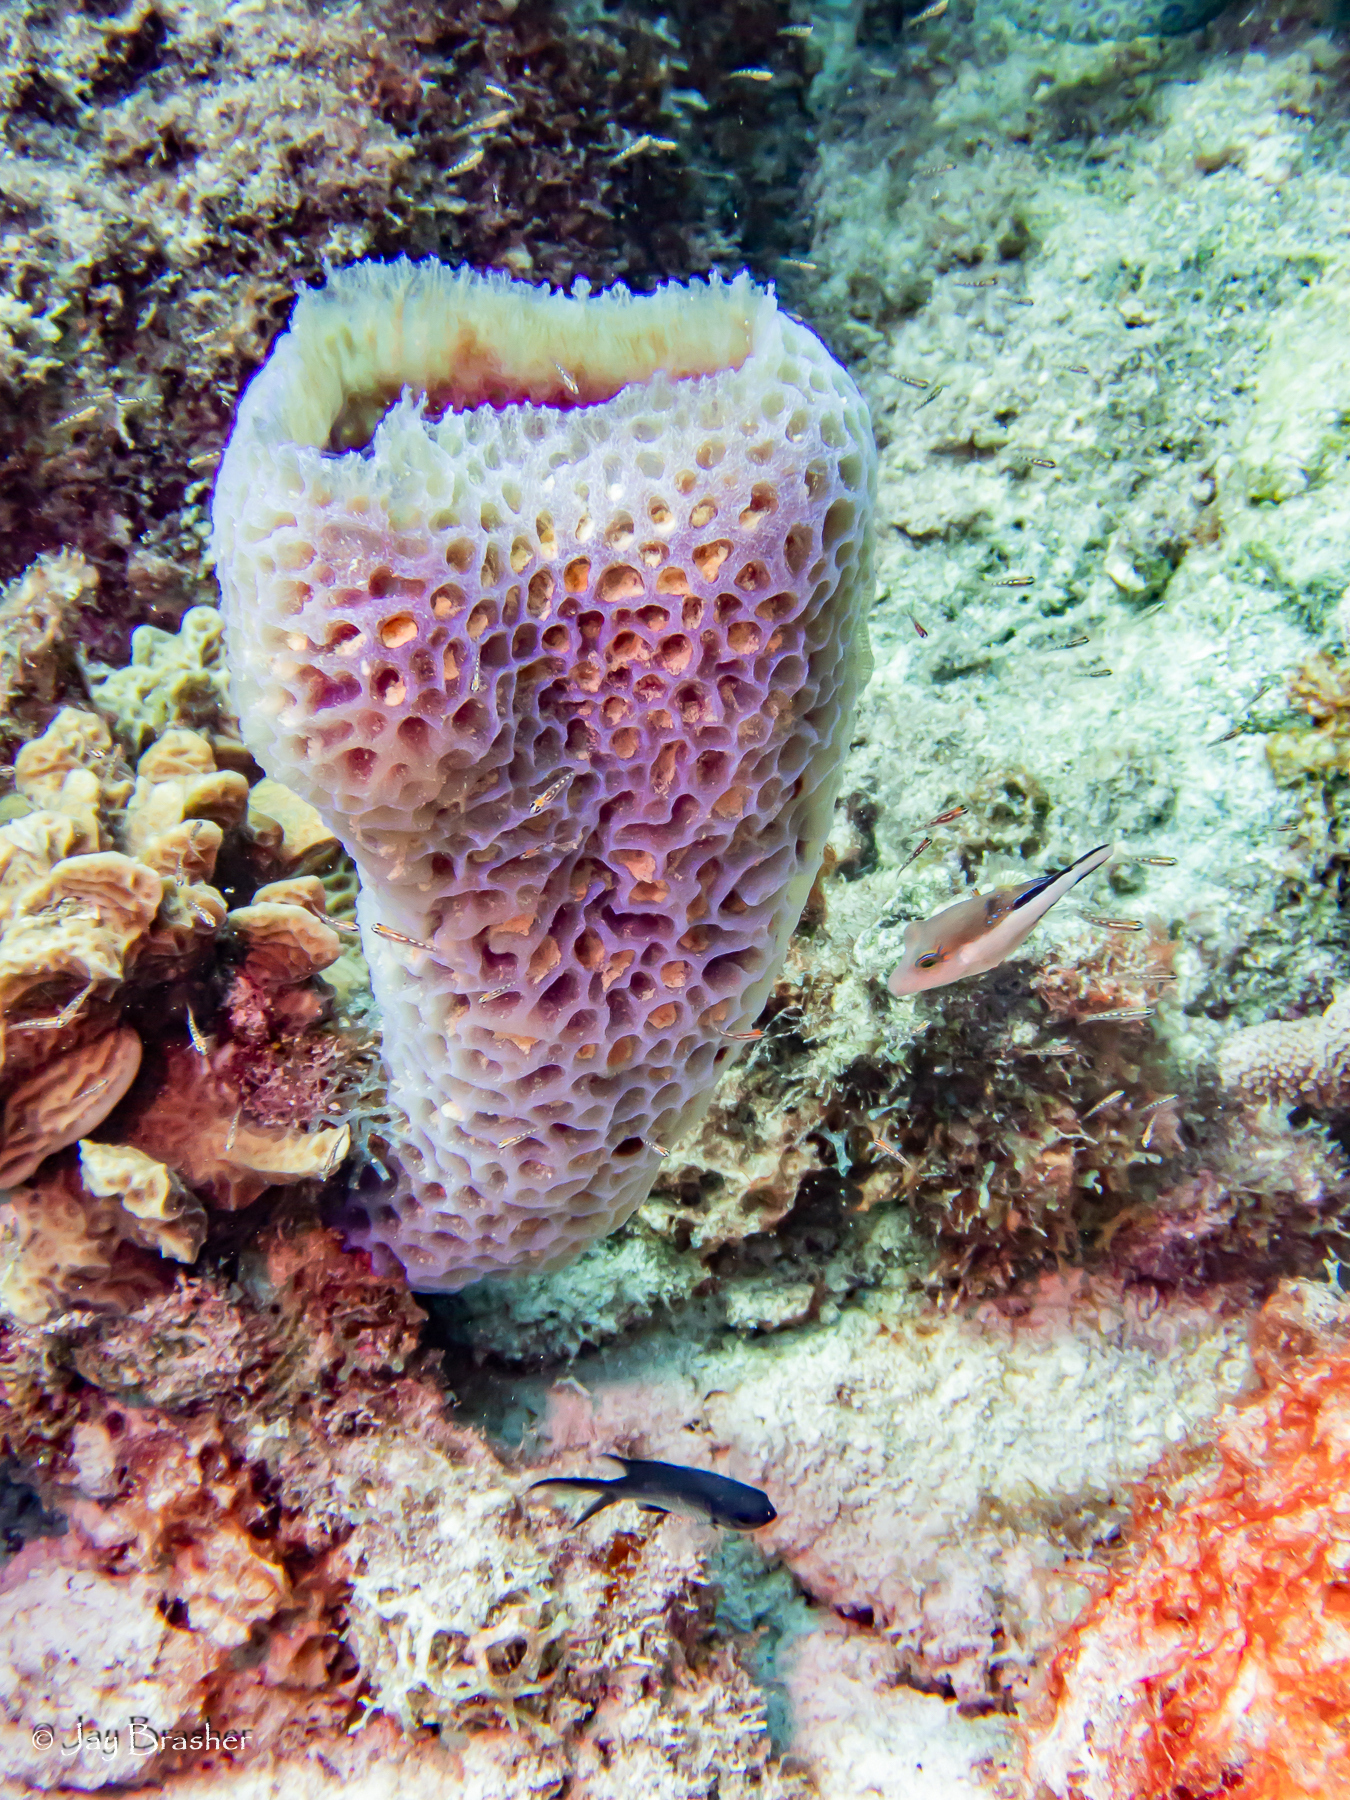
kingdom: Animalia
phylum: Chordata
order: Tetraodontiformes
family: Tetraodontidae
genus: Canthigaster
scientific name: Canthigaster rostrata
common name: Caribbean sharpnose-puffer
